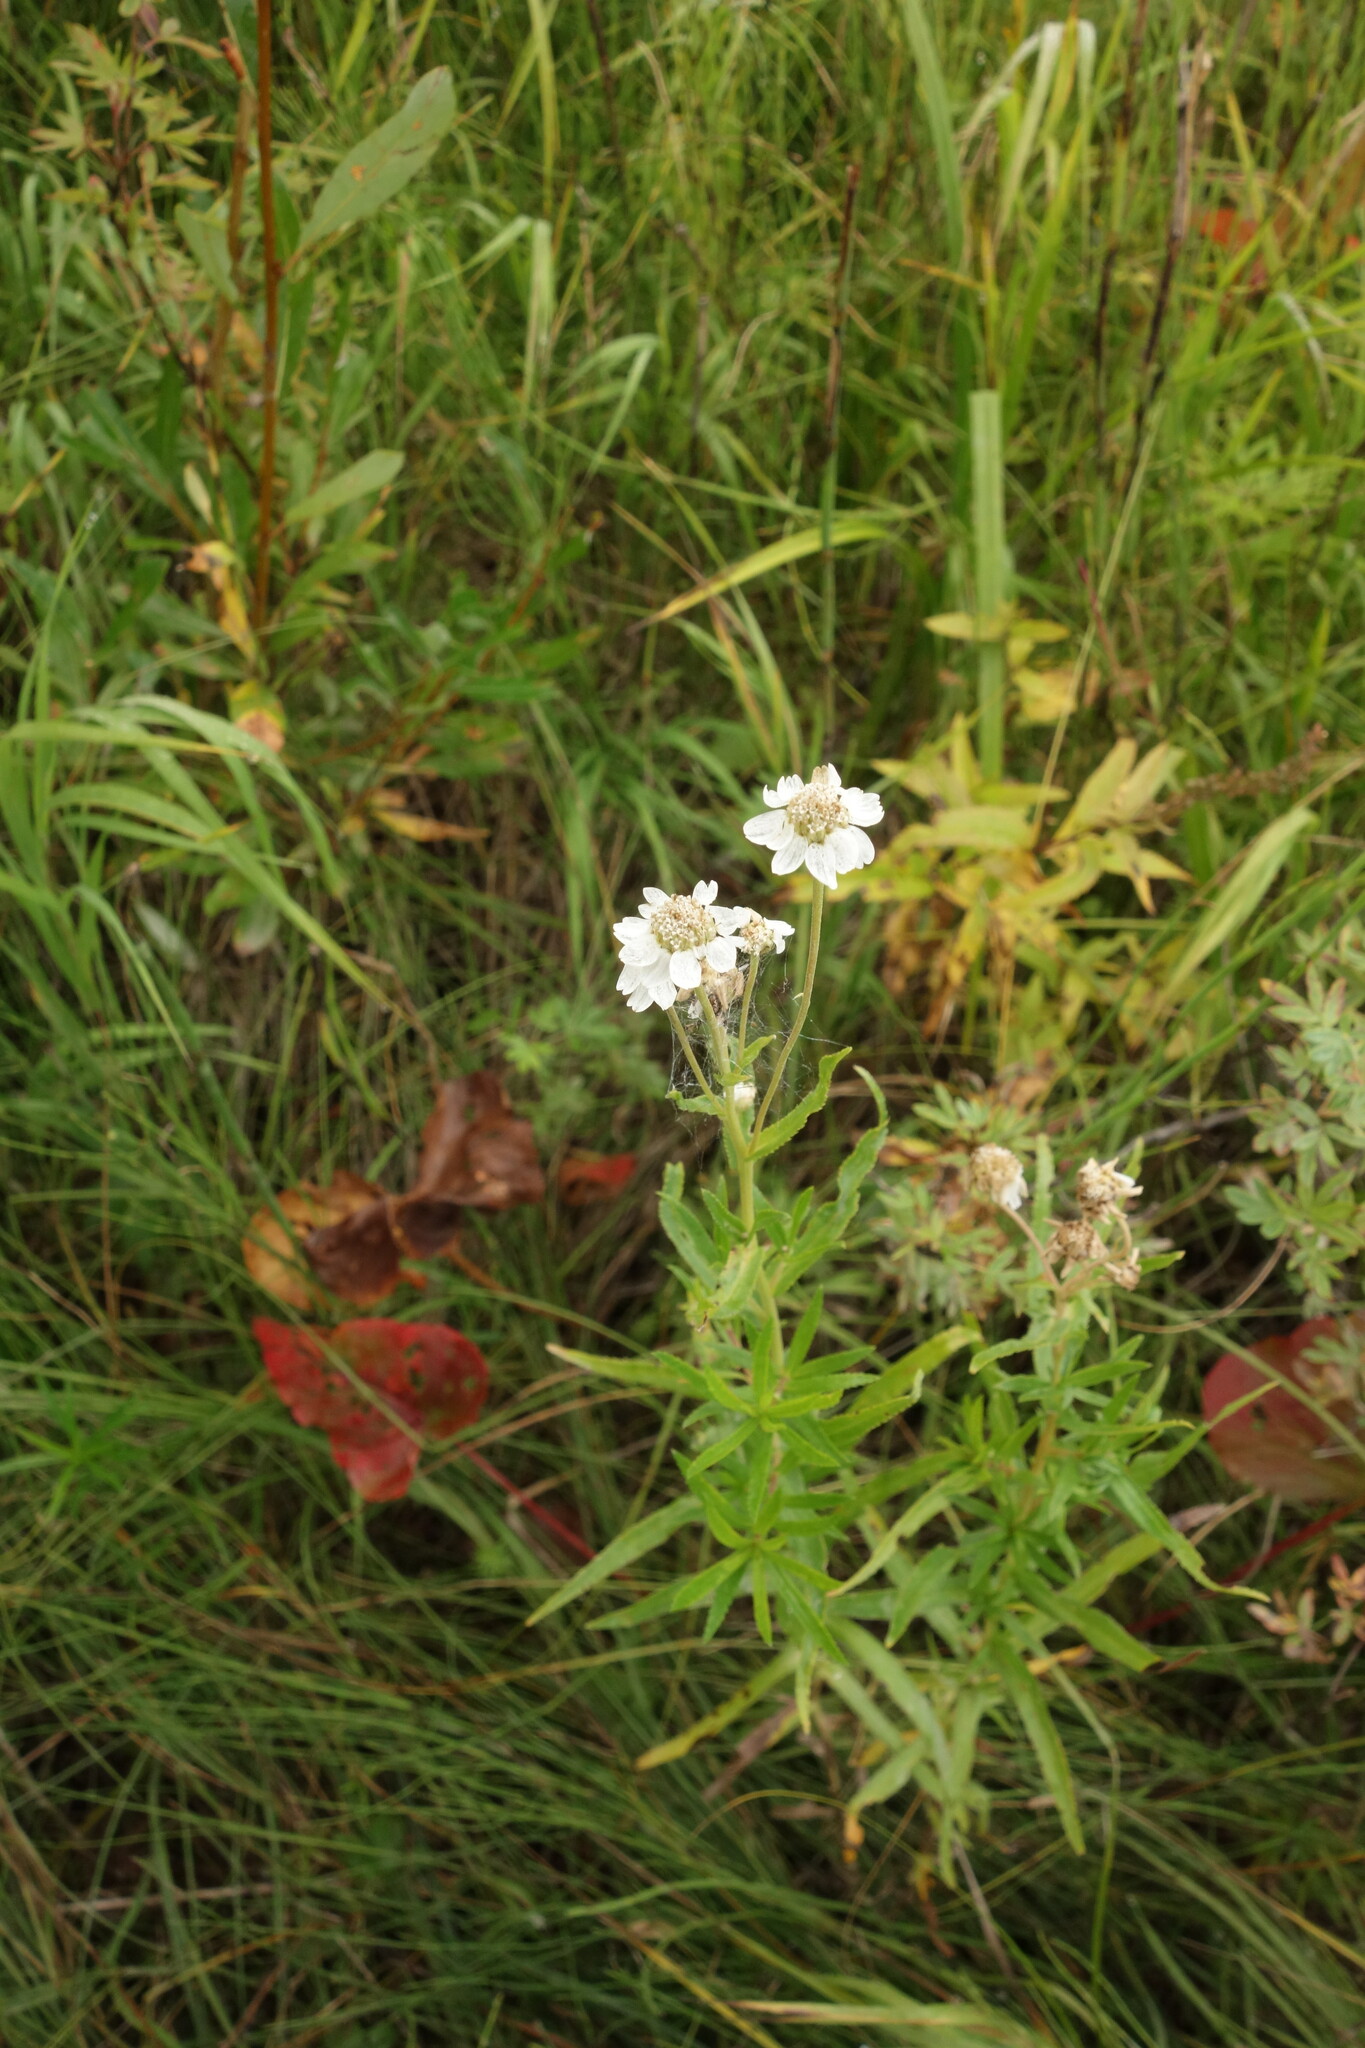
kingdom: Plantae
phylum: Tracheophyta
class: Magnoliopsida
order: Asterales
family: Asteraceae
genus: Achillea
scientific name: Achillea acuminata
